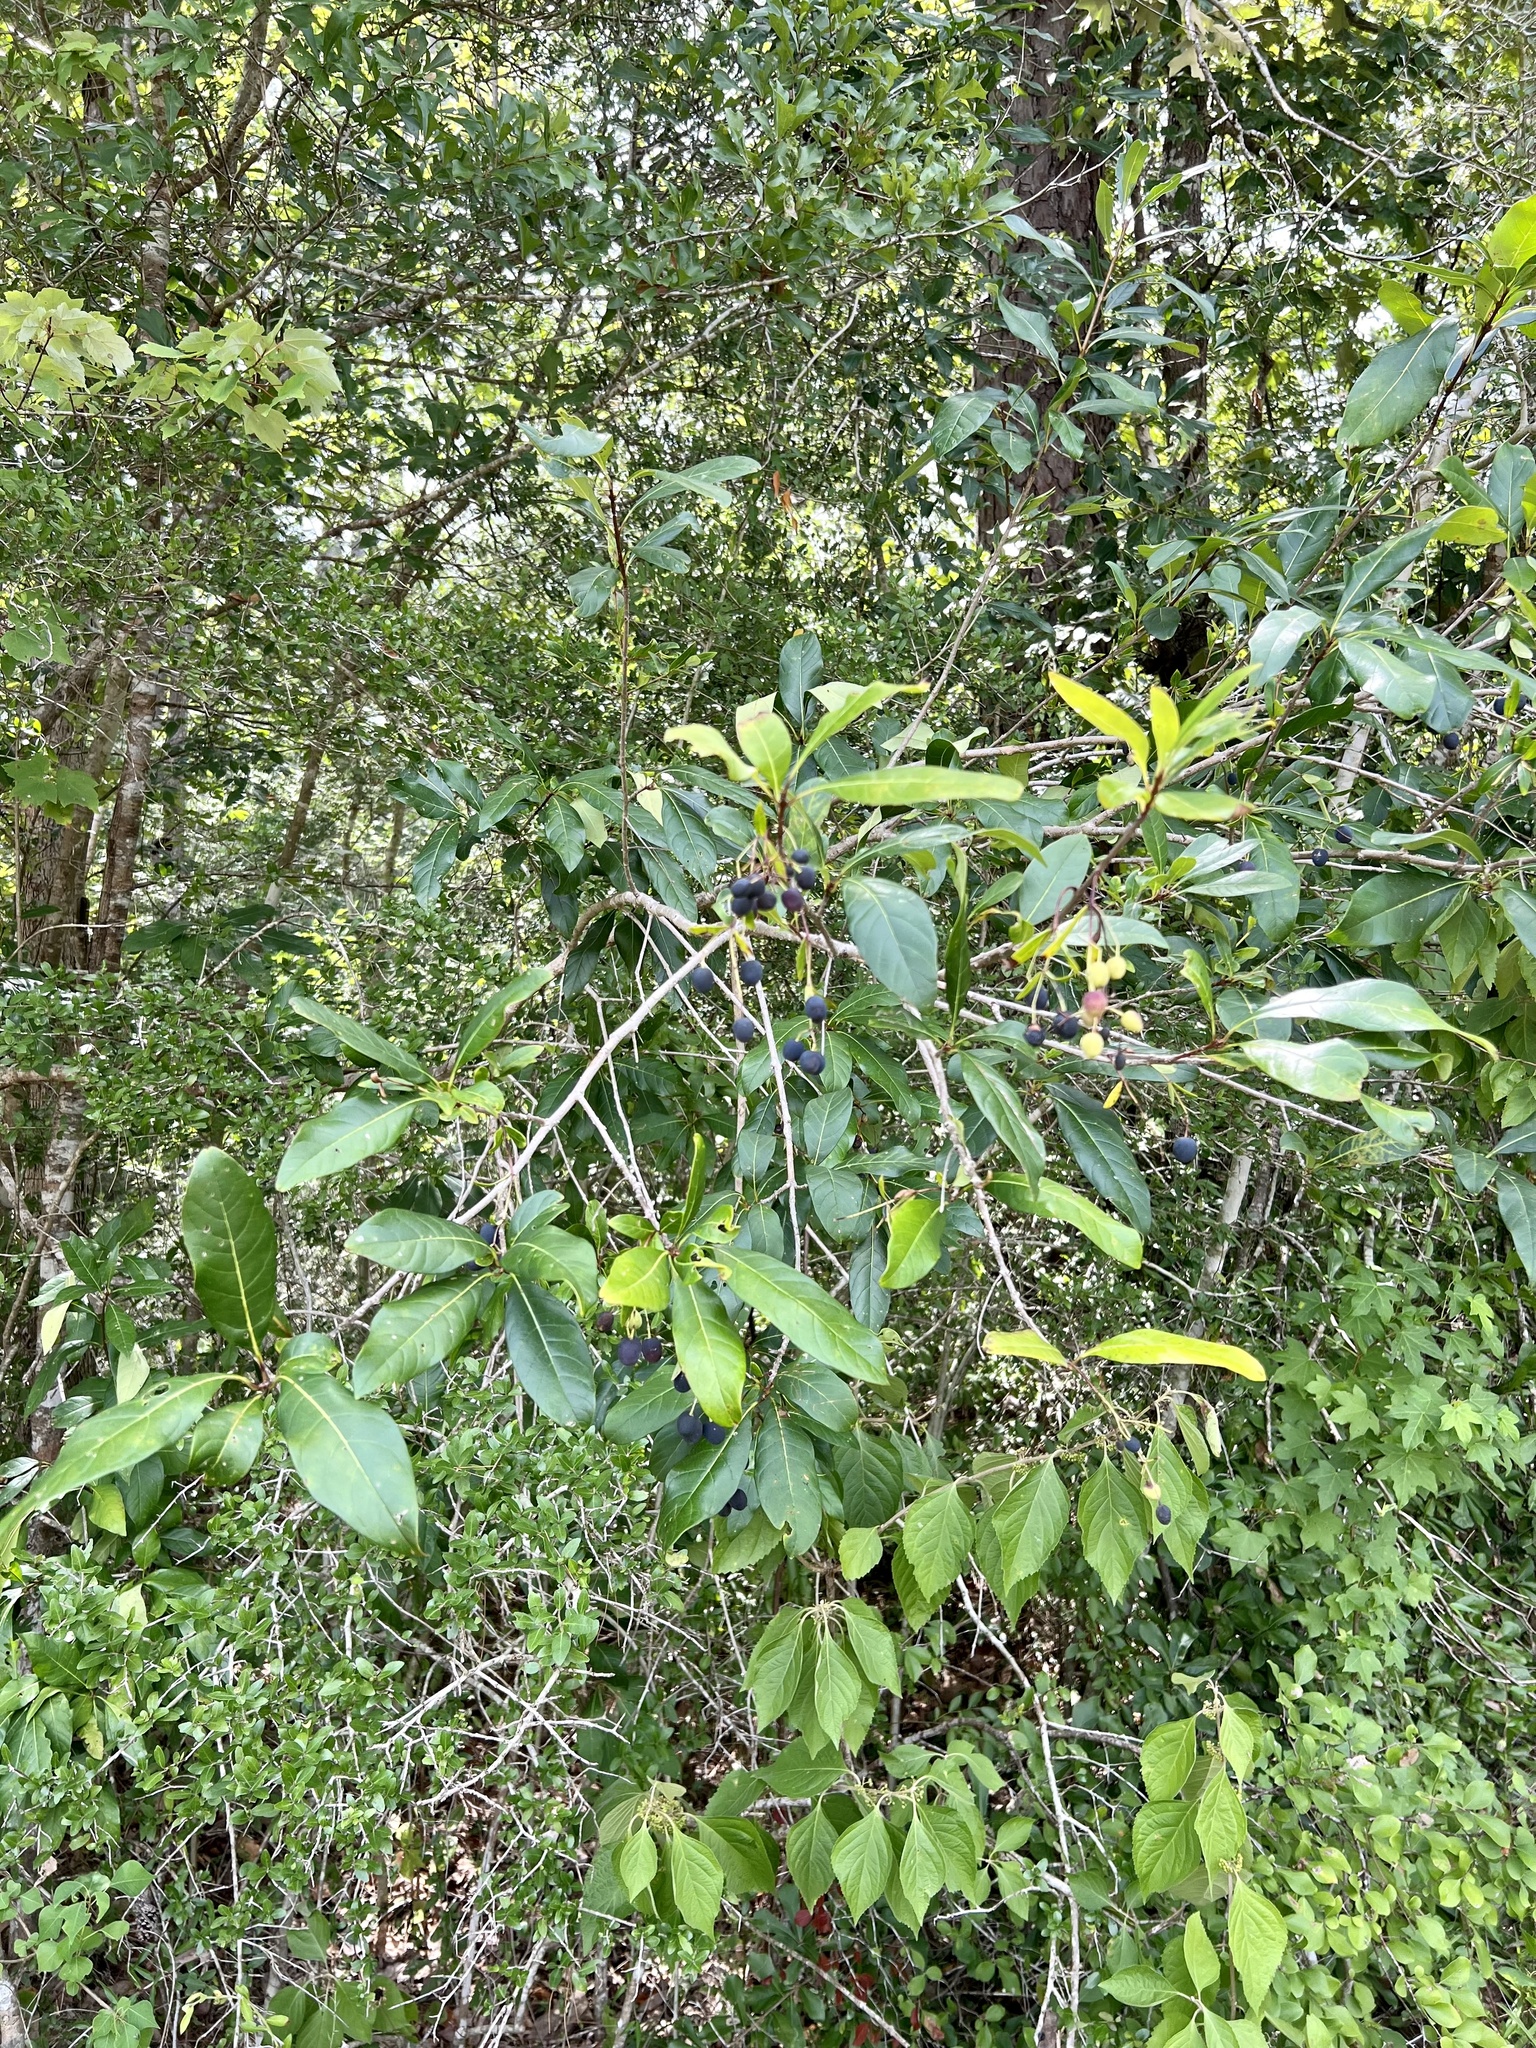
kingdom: Plantae
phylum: Tracheophyta
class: Magnoliopsida
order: Lamiales
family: Oleaceae
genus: Chionanthus
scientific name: Chionanthus virginicus
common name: American fringetree
